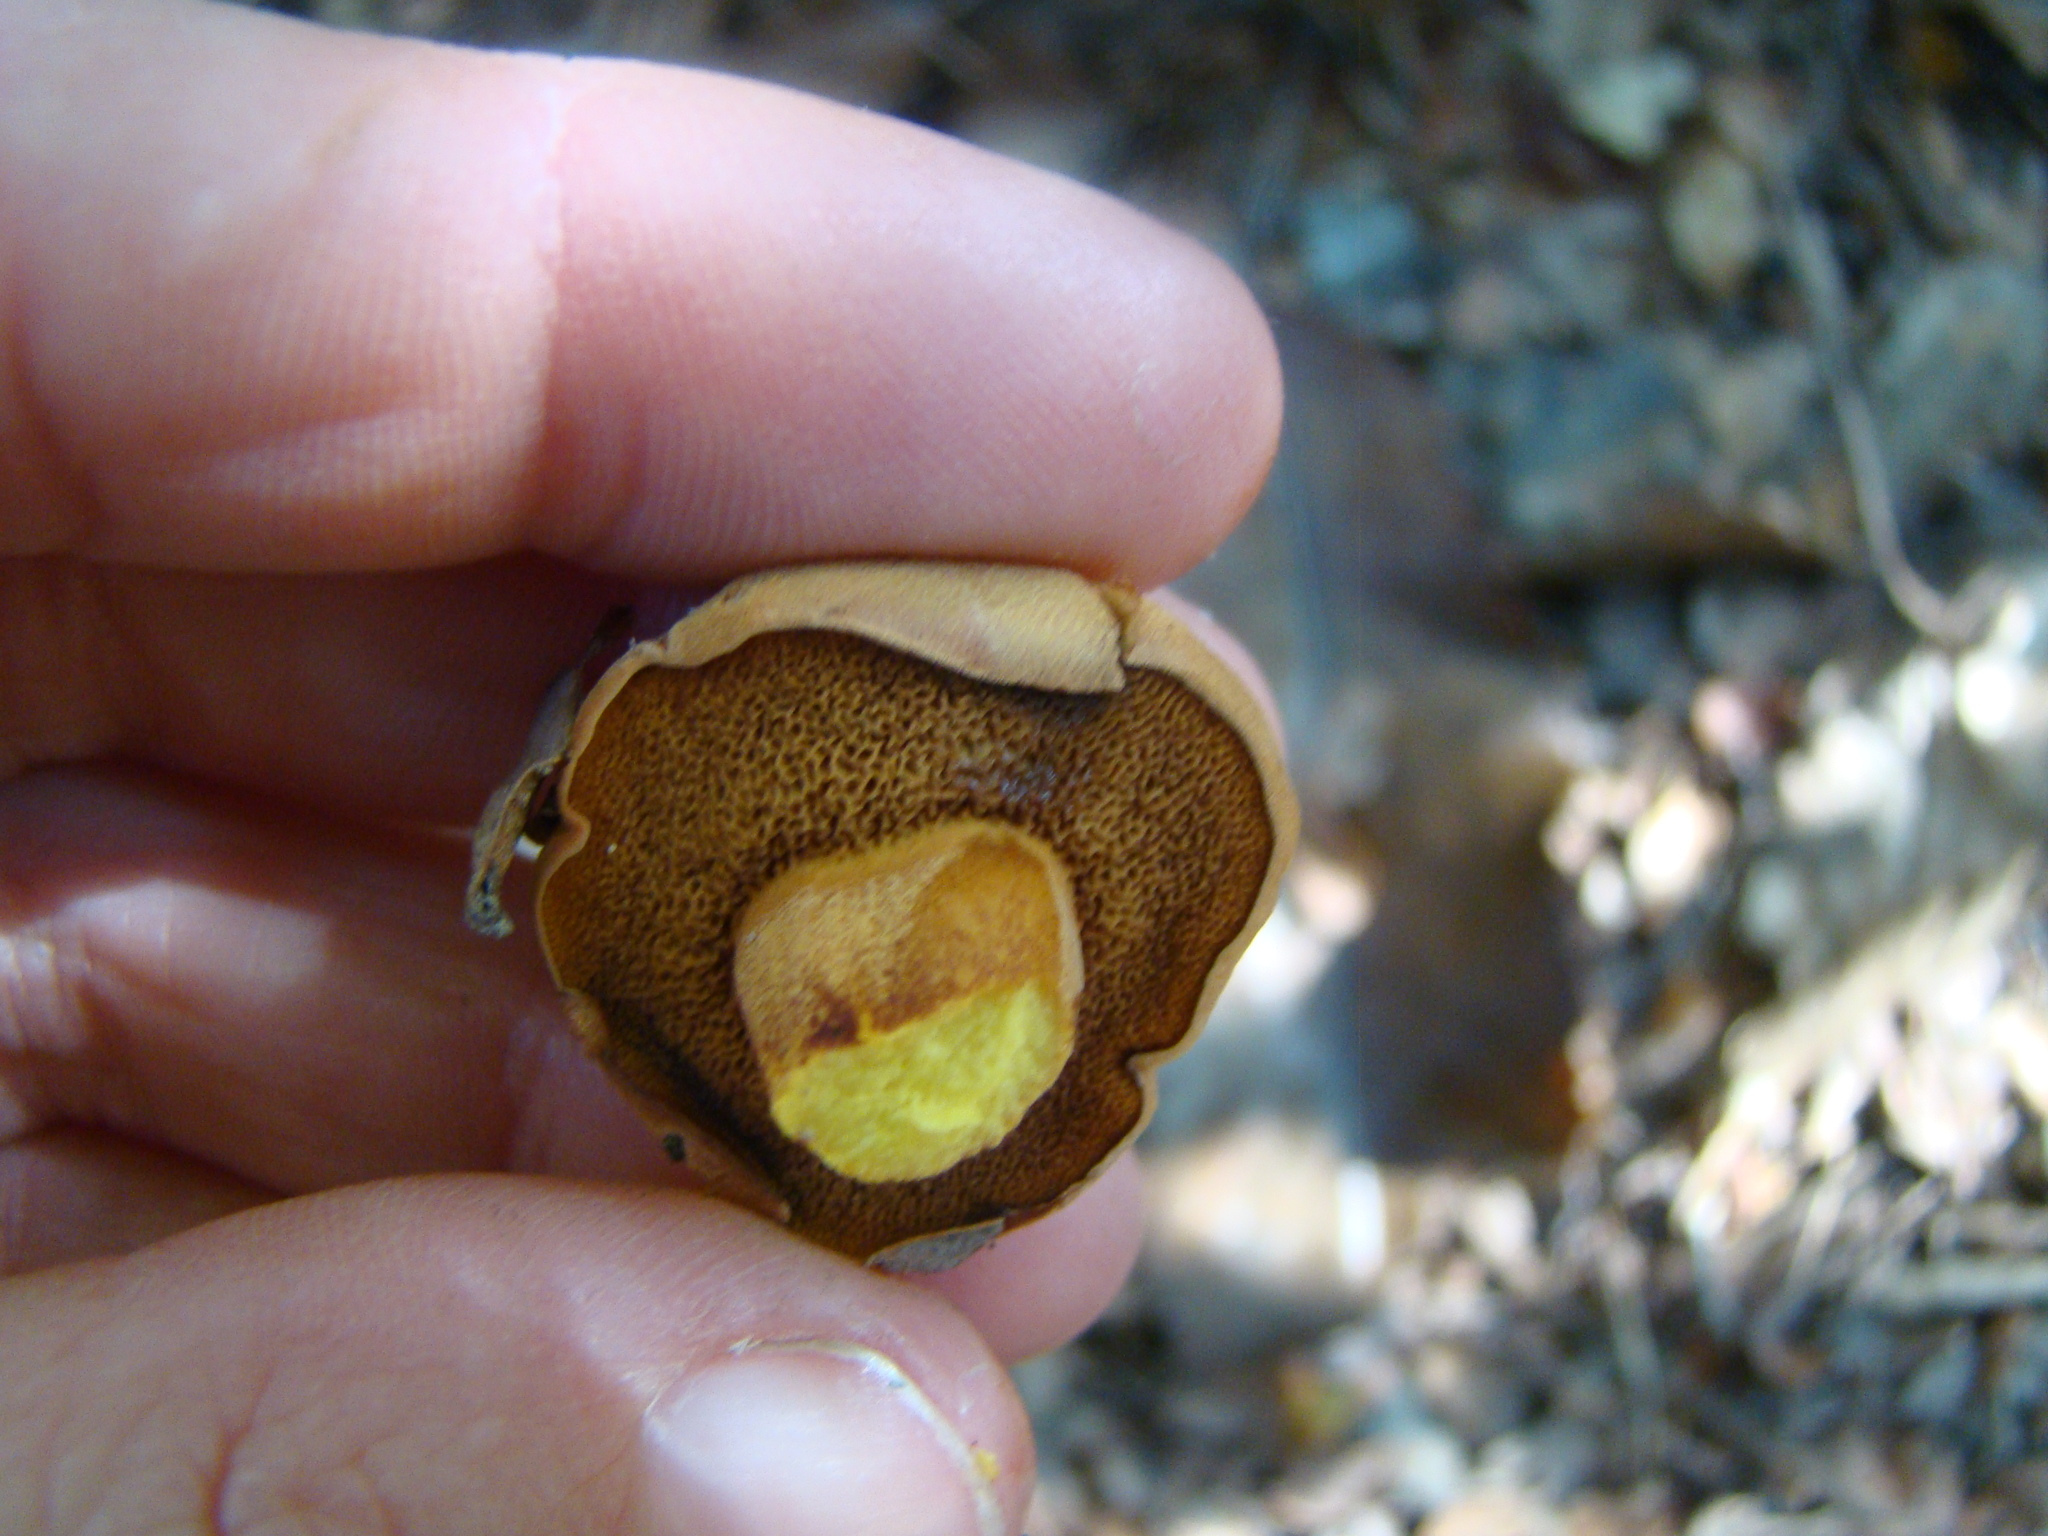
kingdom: Fungi
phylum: Basidiomycota
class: Agaricomycetes
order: Boletales
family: Boletaceae
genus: Chalciporus
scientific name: Chalciporus piperatus
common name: Peppery bolete
